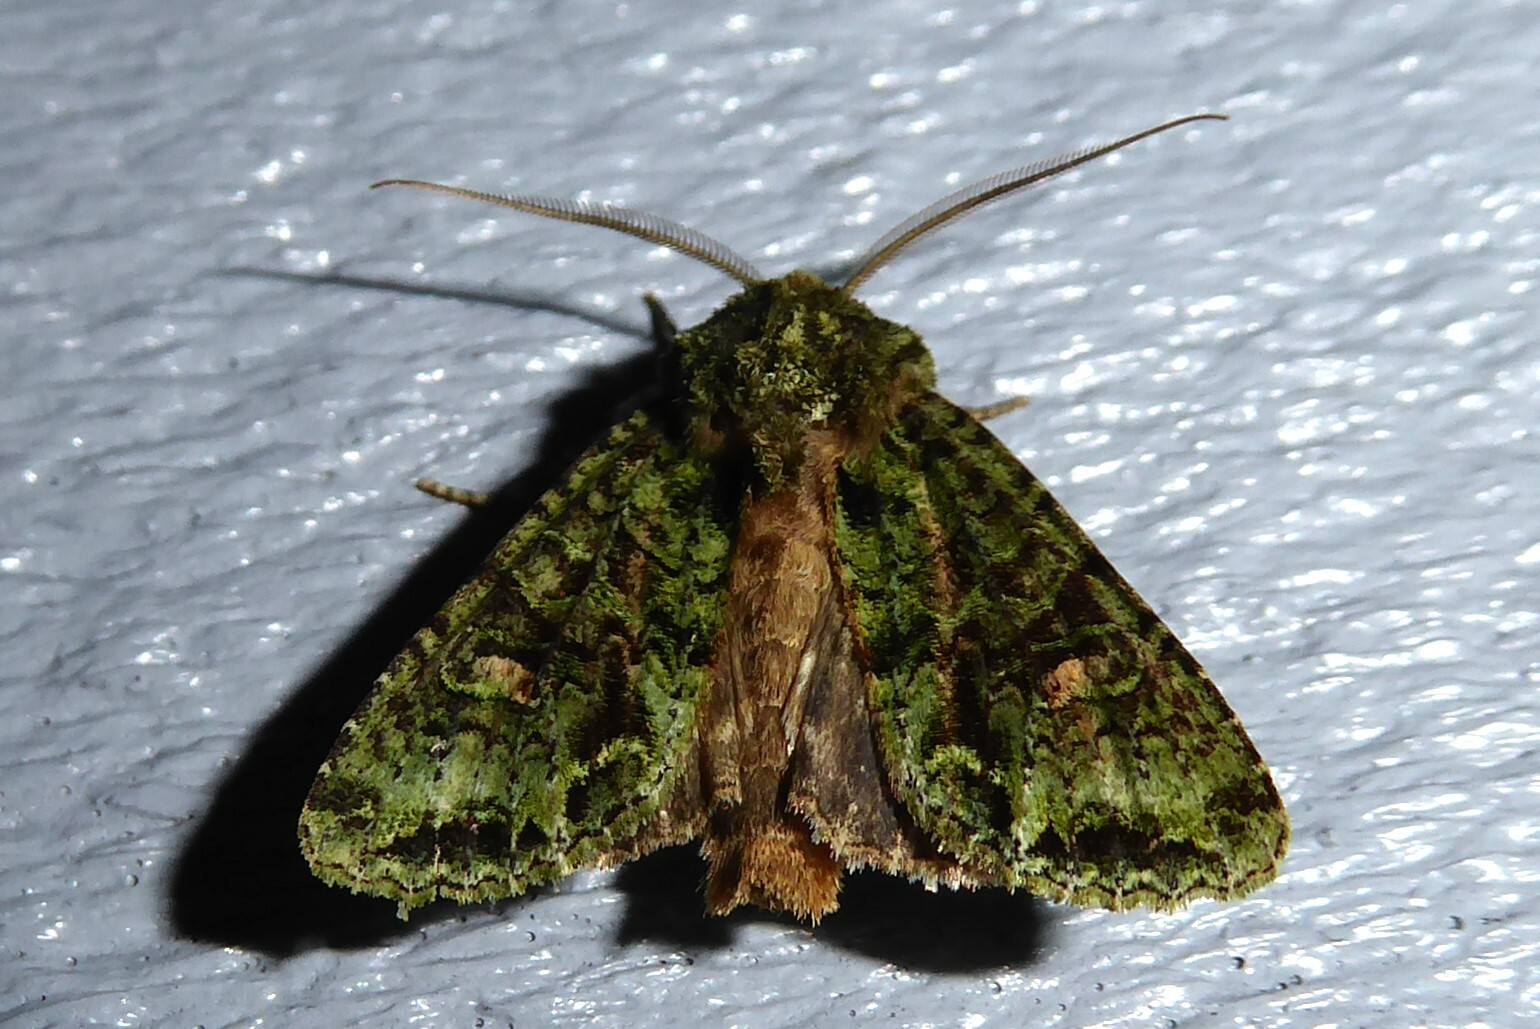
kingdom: Animalia
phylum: Arthropoda
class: Insecta
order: Lepidoptera
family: Noctuidae
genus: Ichneutica
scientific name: Ichneutica
